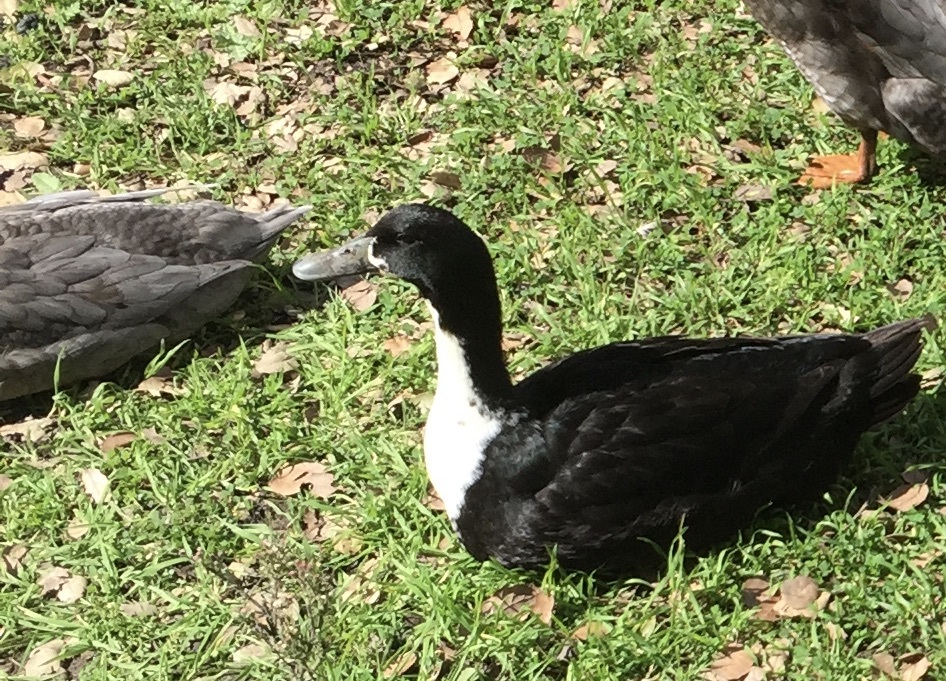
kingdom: Animalia
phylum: Chordata
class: Aves
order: Anseriformes
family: Anatidae
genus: Anas
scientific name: Anas platyrhynchos
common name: Mallard
